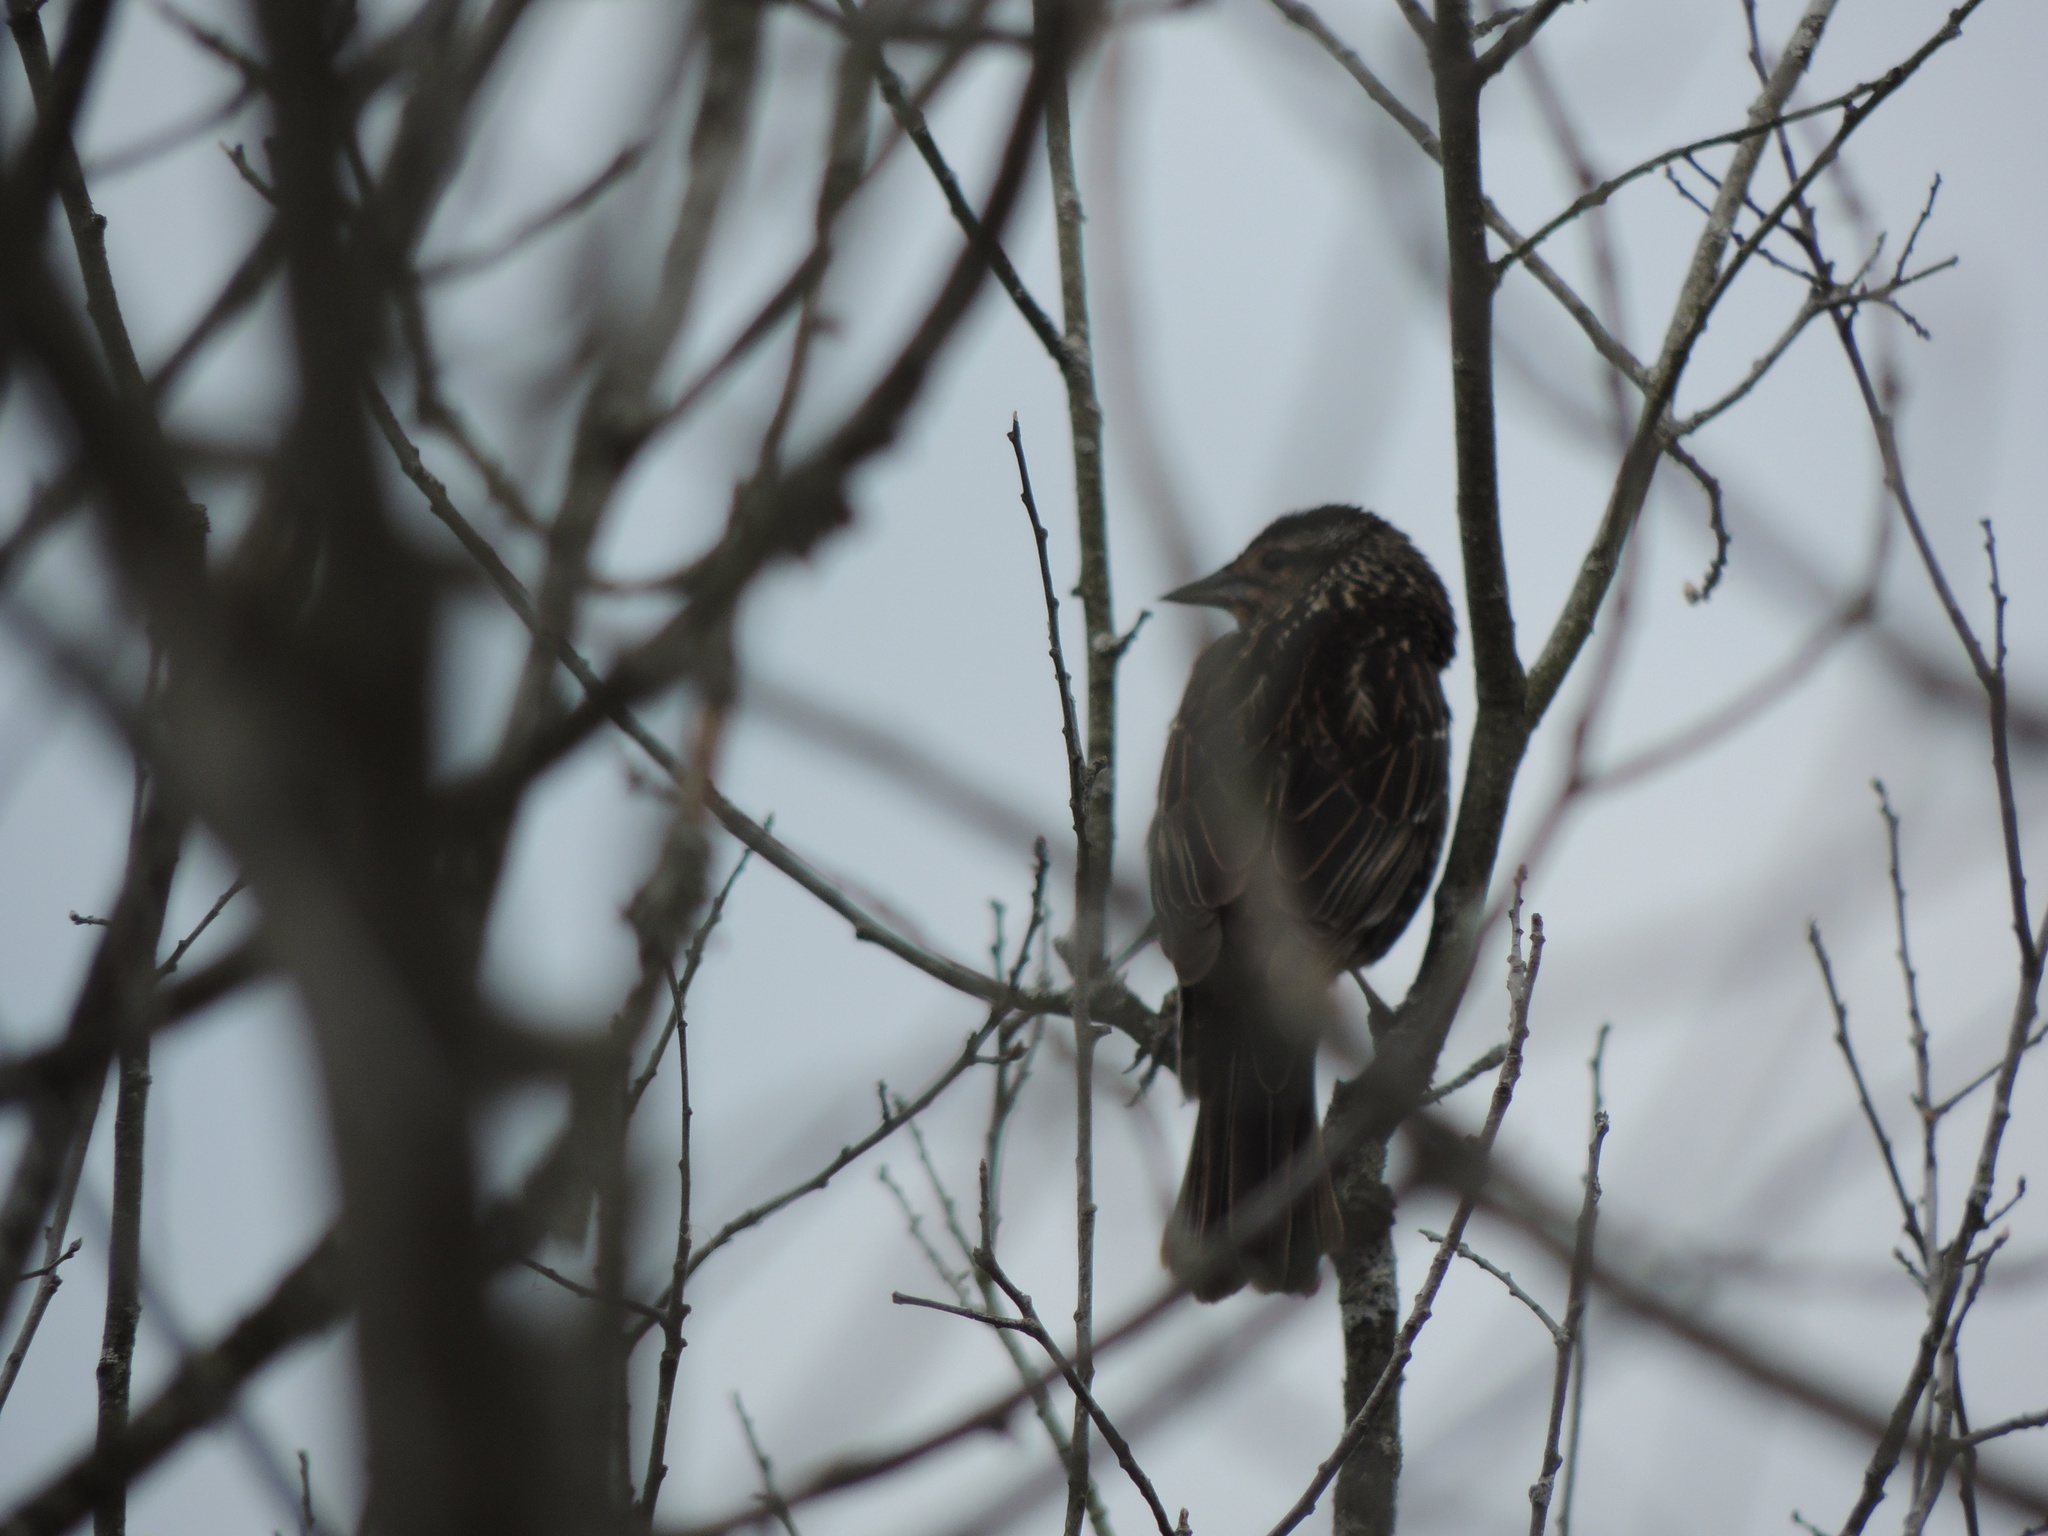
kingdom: Animalia
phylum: Chordata
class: Aves
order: Passeriformes
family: Icteridae
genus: Agelaius
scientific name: Agelaius phoeniceus
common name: Red-winged blackbird
